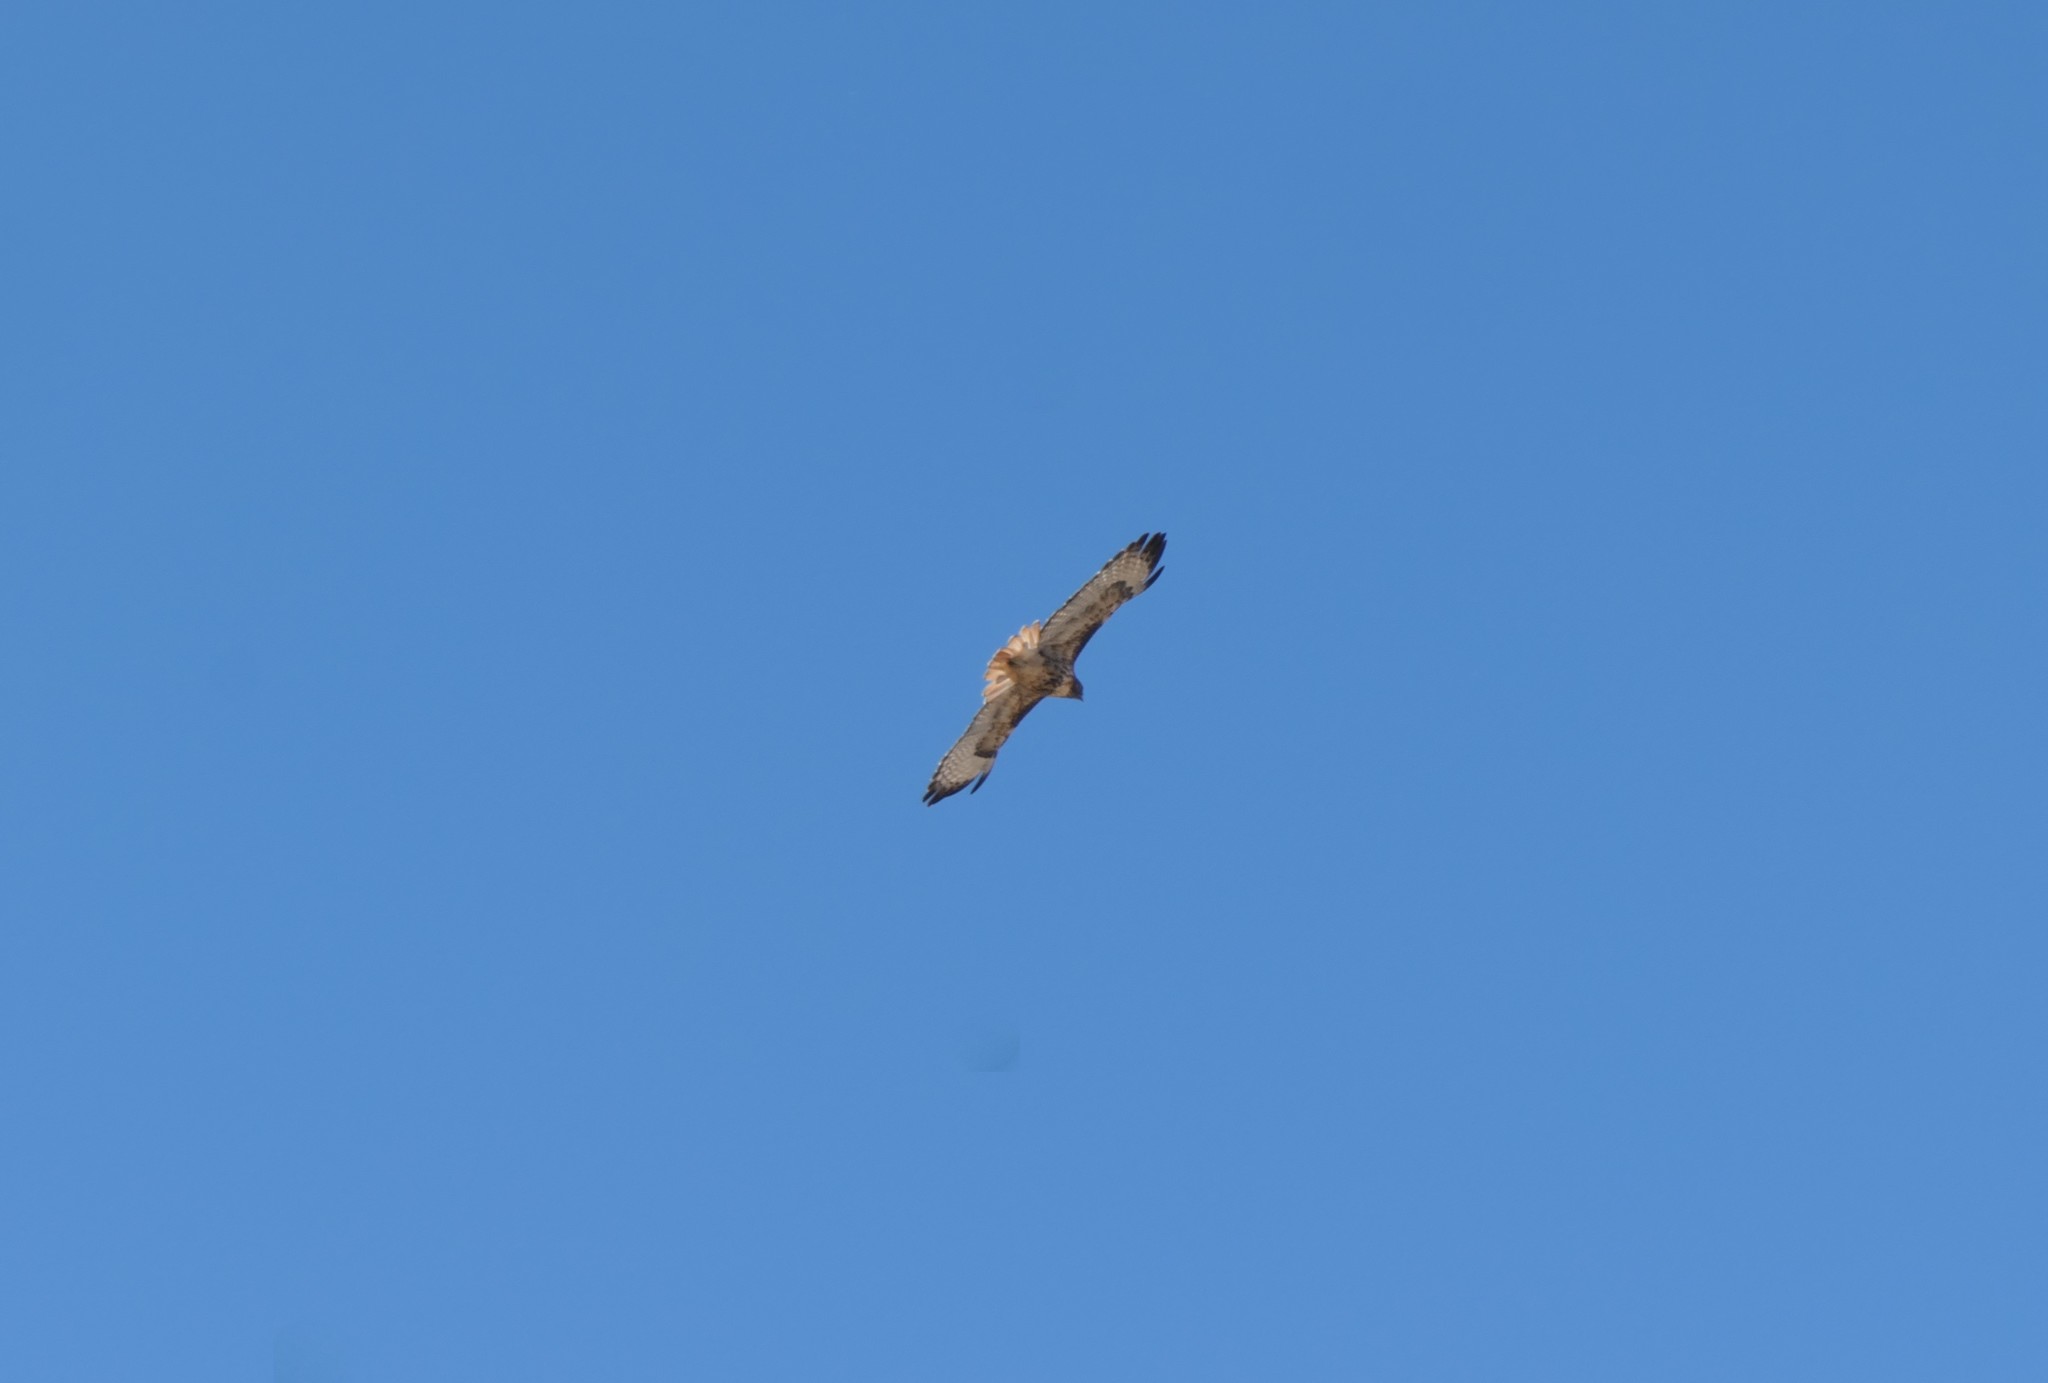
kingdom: Animalia
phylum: Chordata
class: Aves
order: Accipitriformes
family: Accipitridae
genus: Buteo
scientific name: Buteo jamaicensis
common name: Red-tailed hawk
